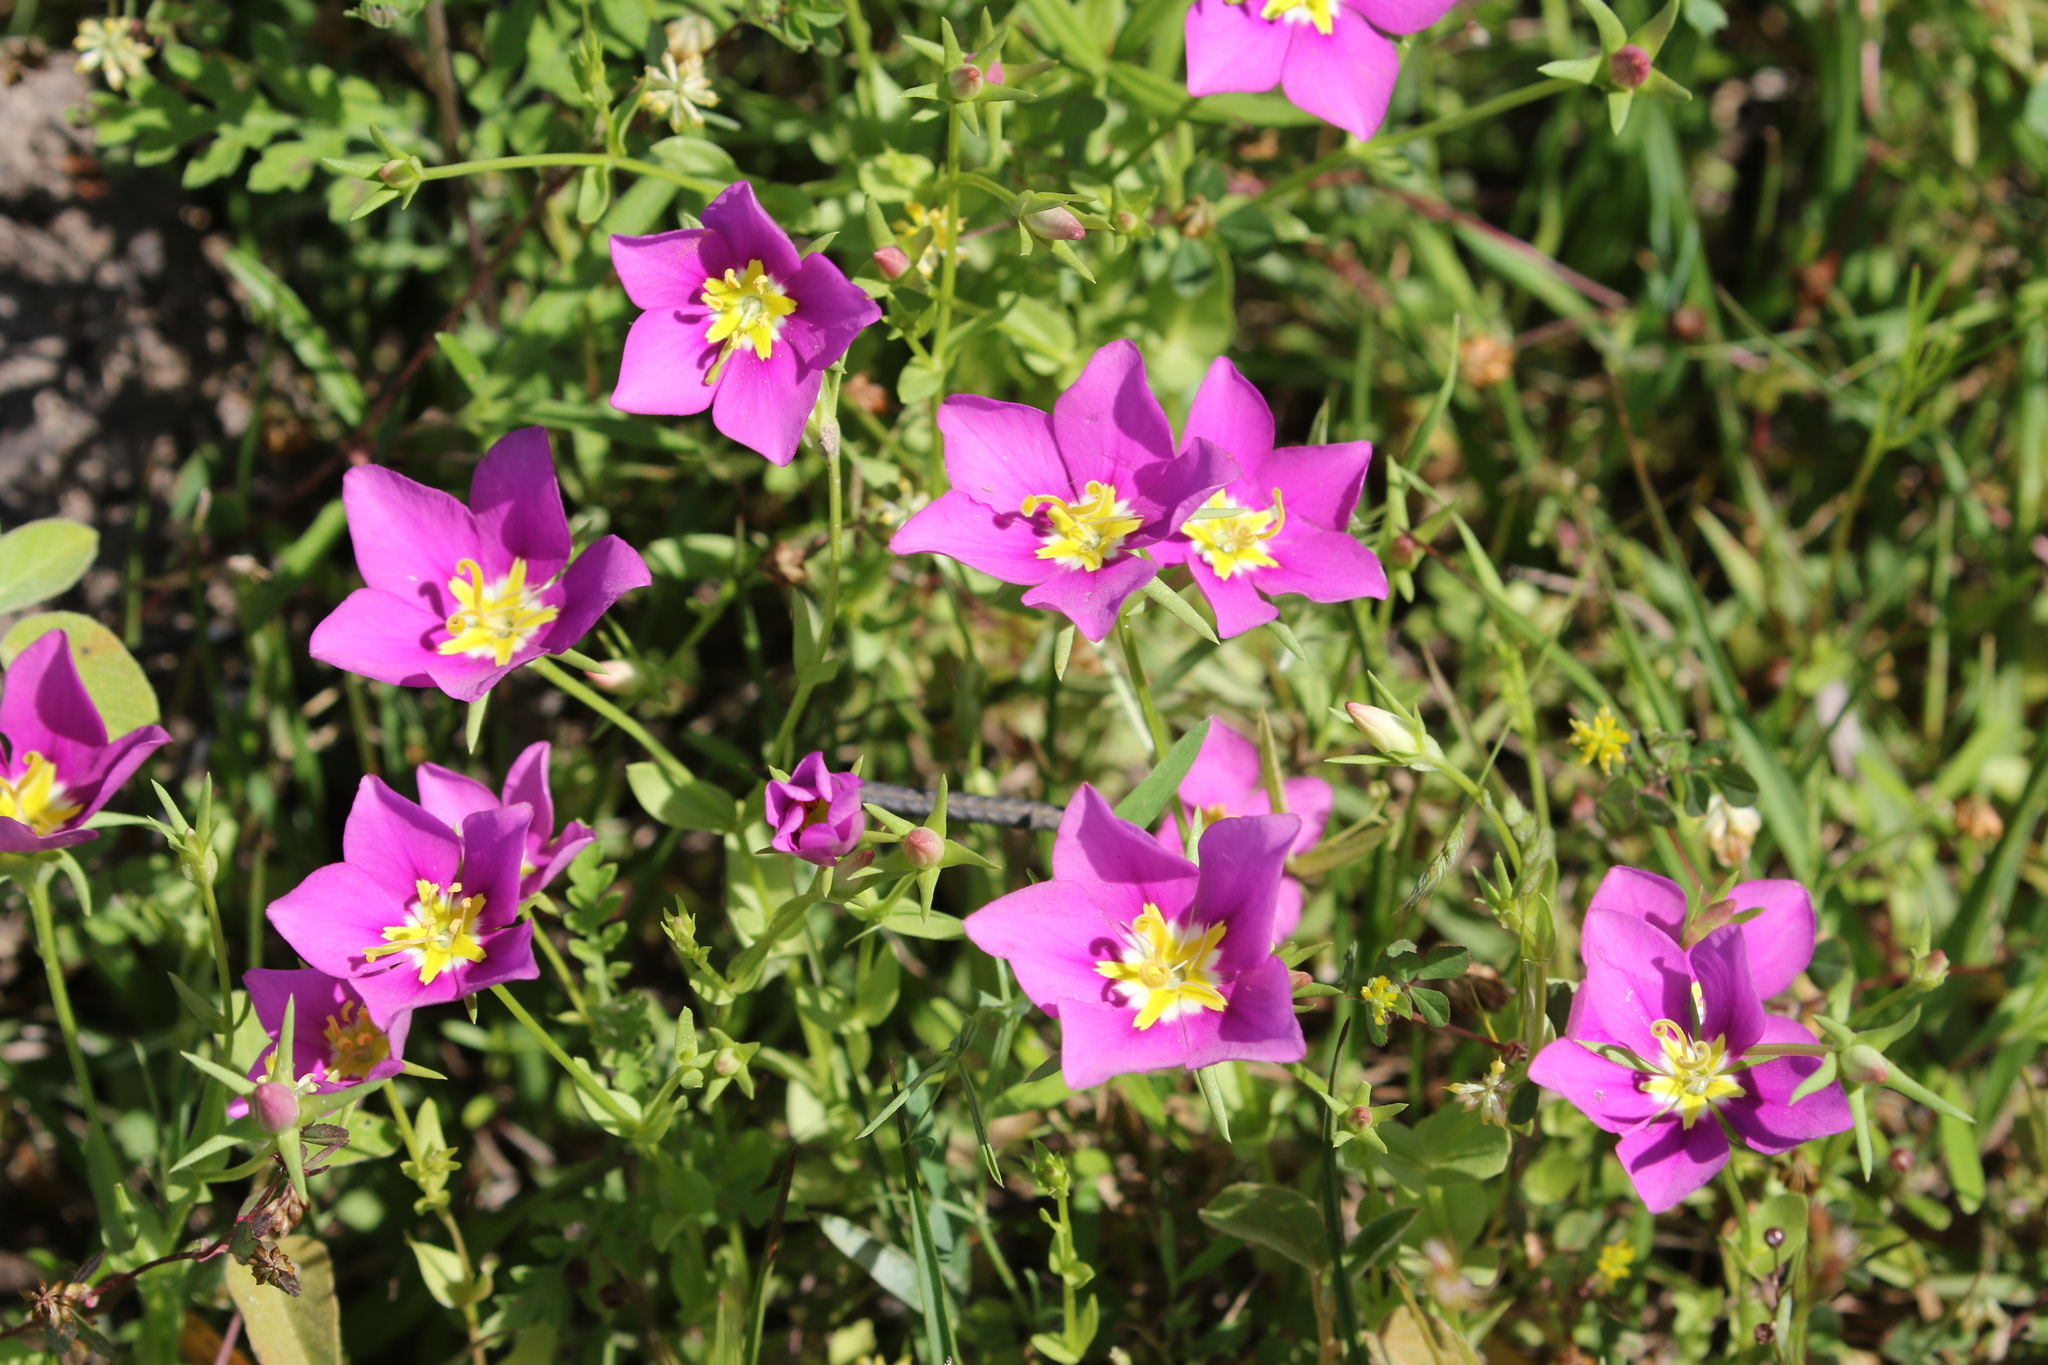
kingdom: Plantae
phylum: Tracheophyta
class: Magnoliopsida
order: Gentianales
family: Gentianaceae
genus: Sabatia
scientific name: Sabatia campestris
